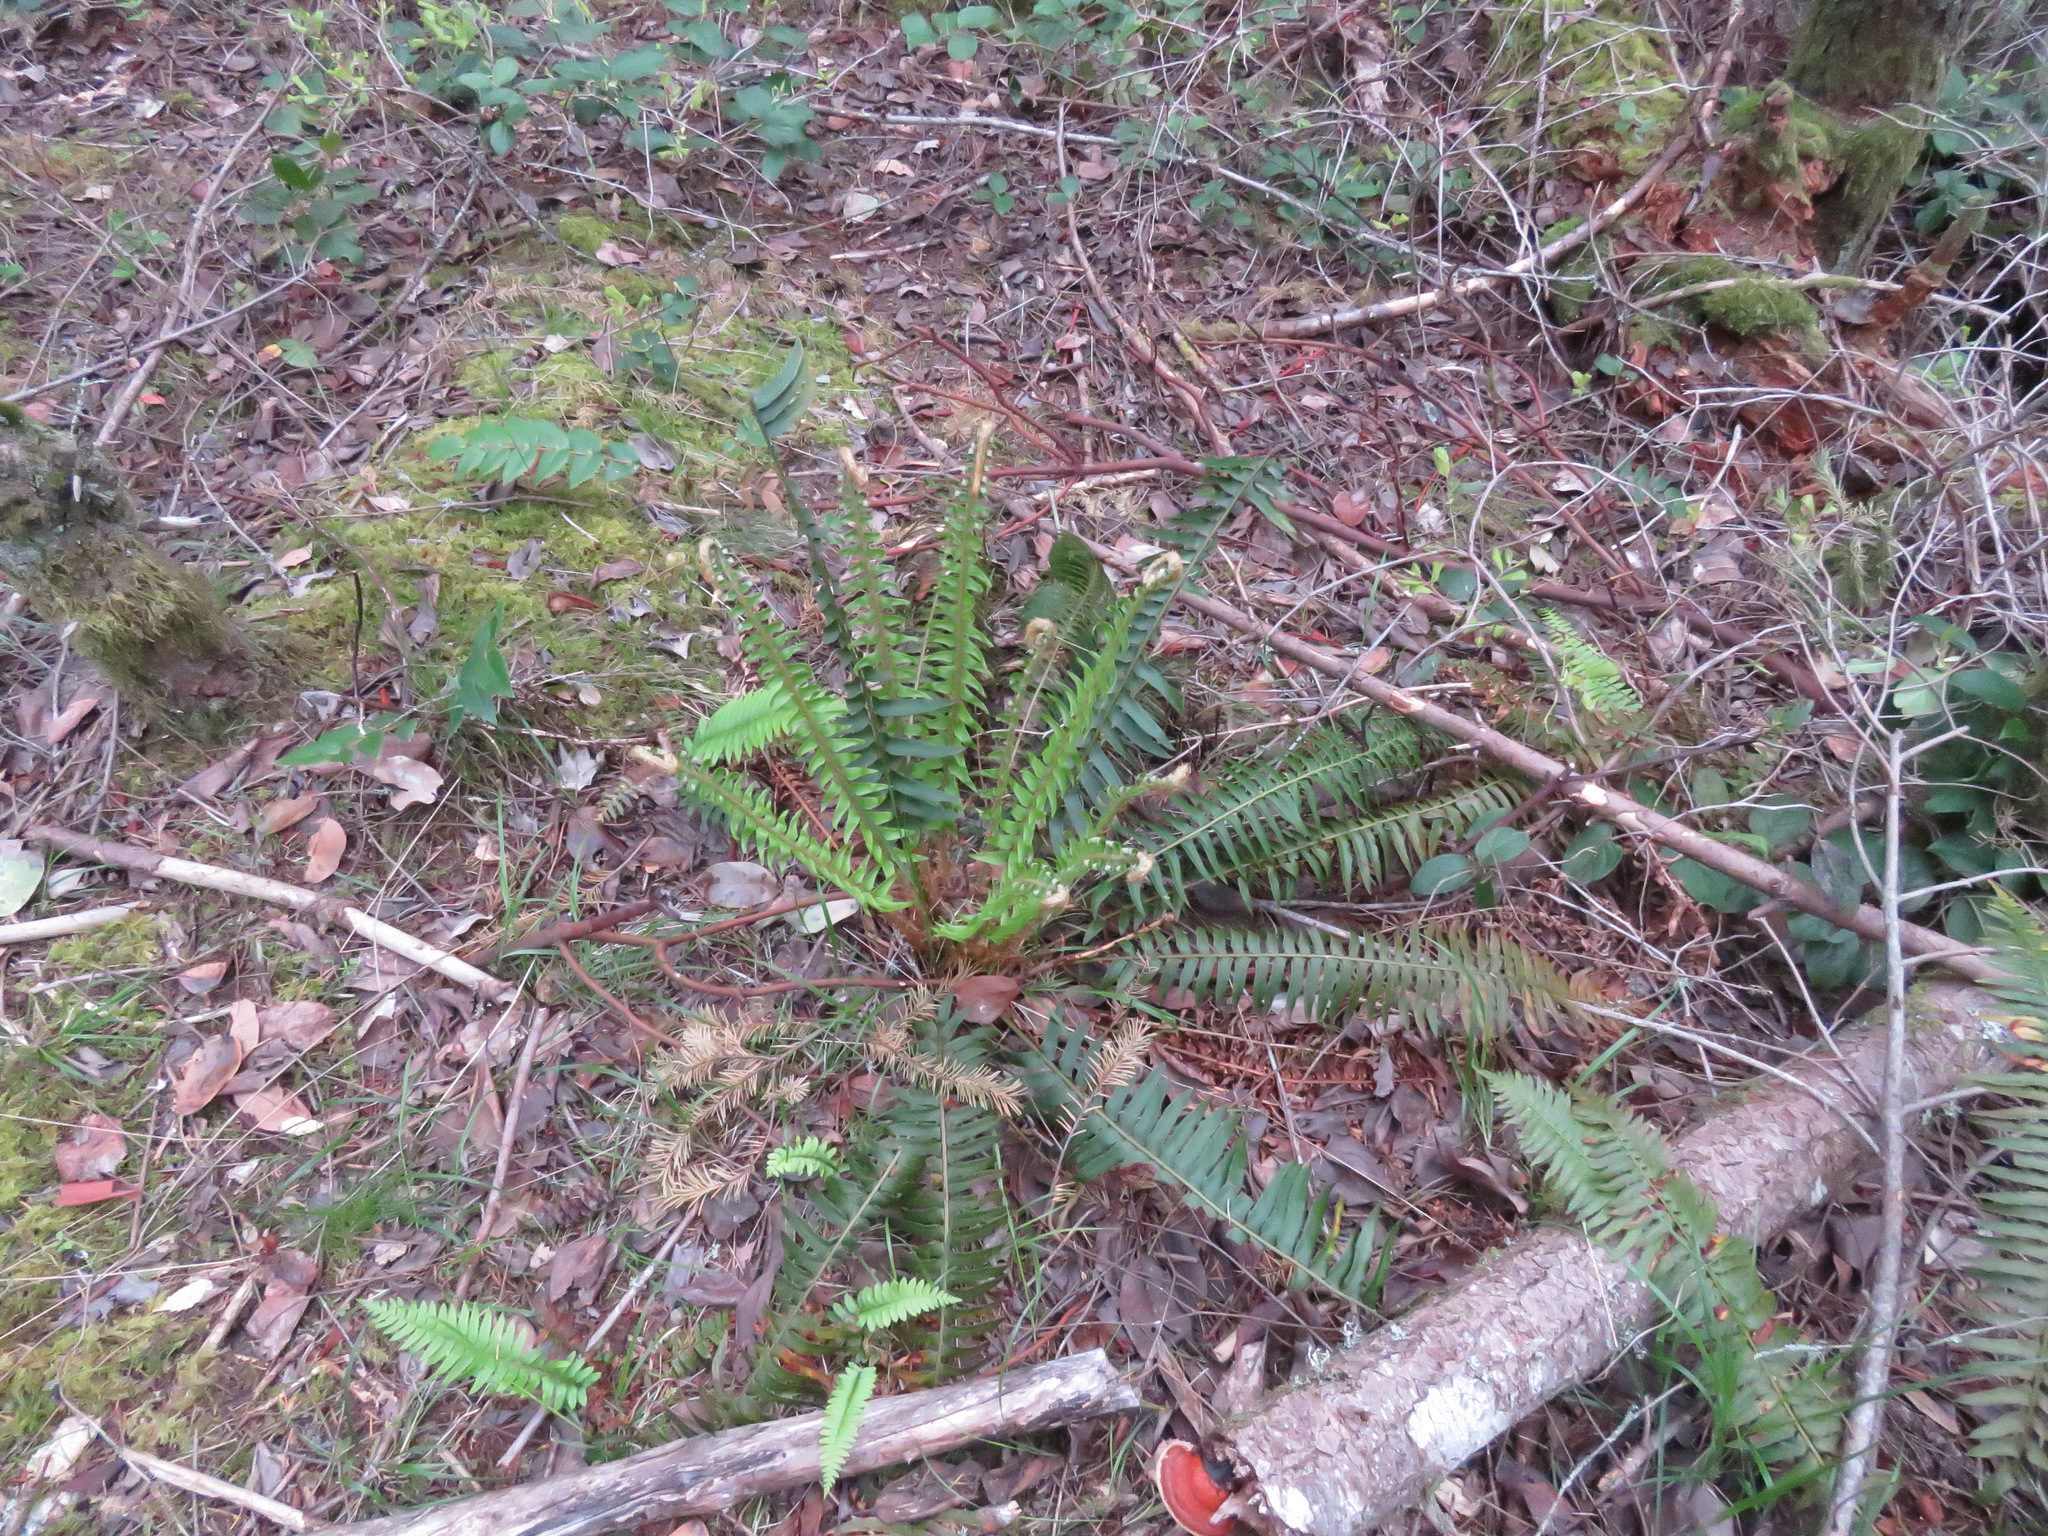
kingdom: Plantae
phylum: Tracheophyta
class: Polypodiopsida
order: Polypodiales
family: Dryopteridaceae
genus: Polystichum
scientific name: Polystichum munitum
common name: Western sword-fern
